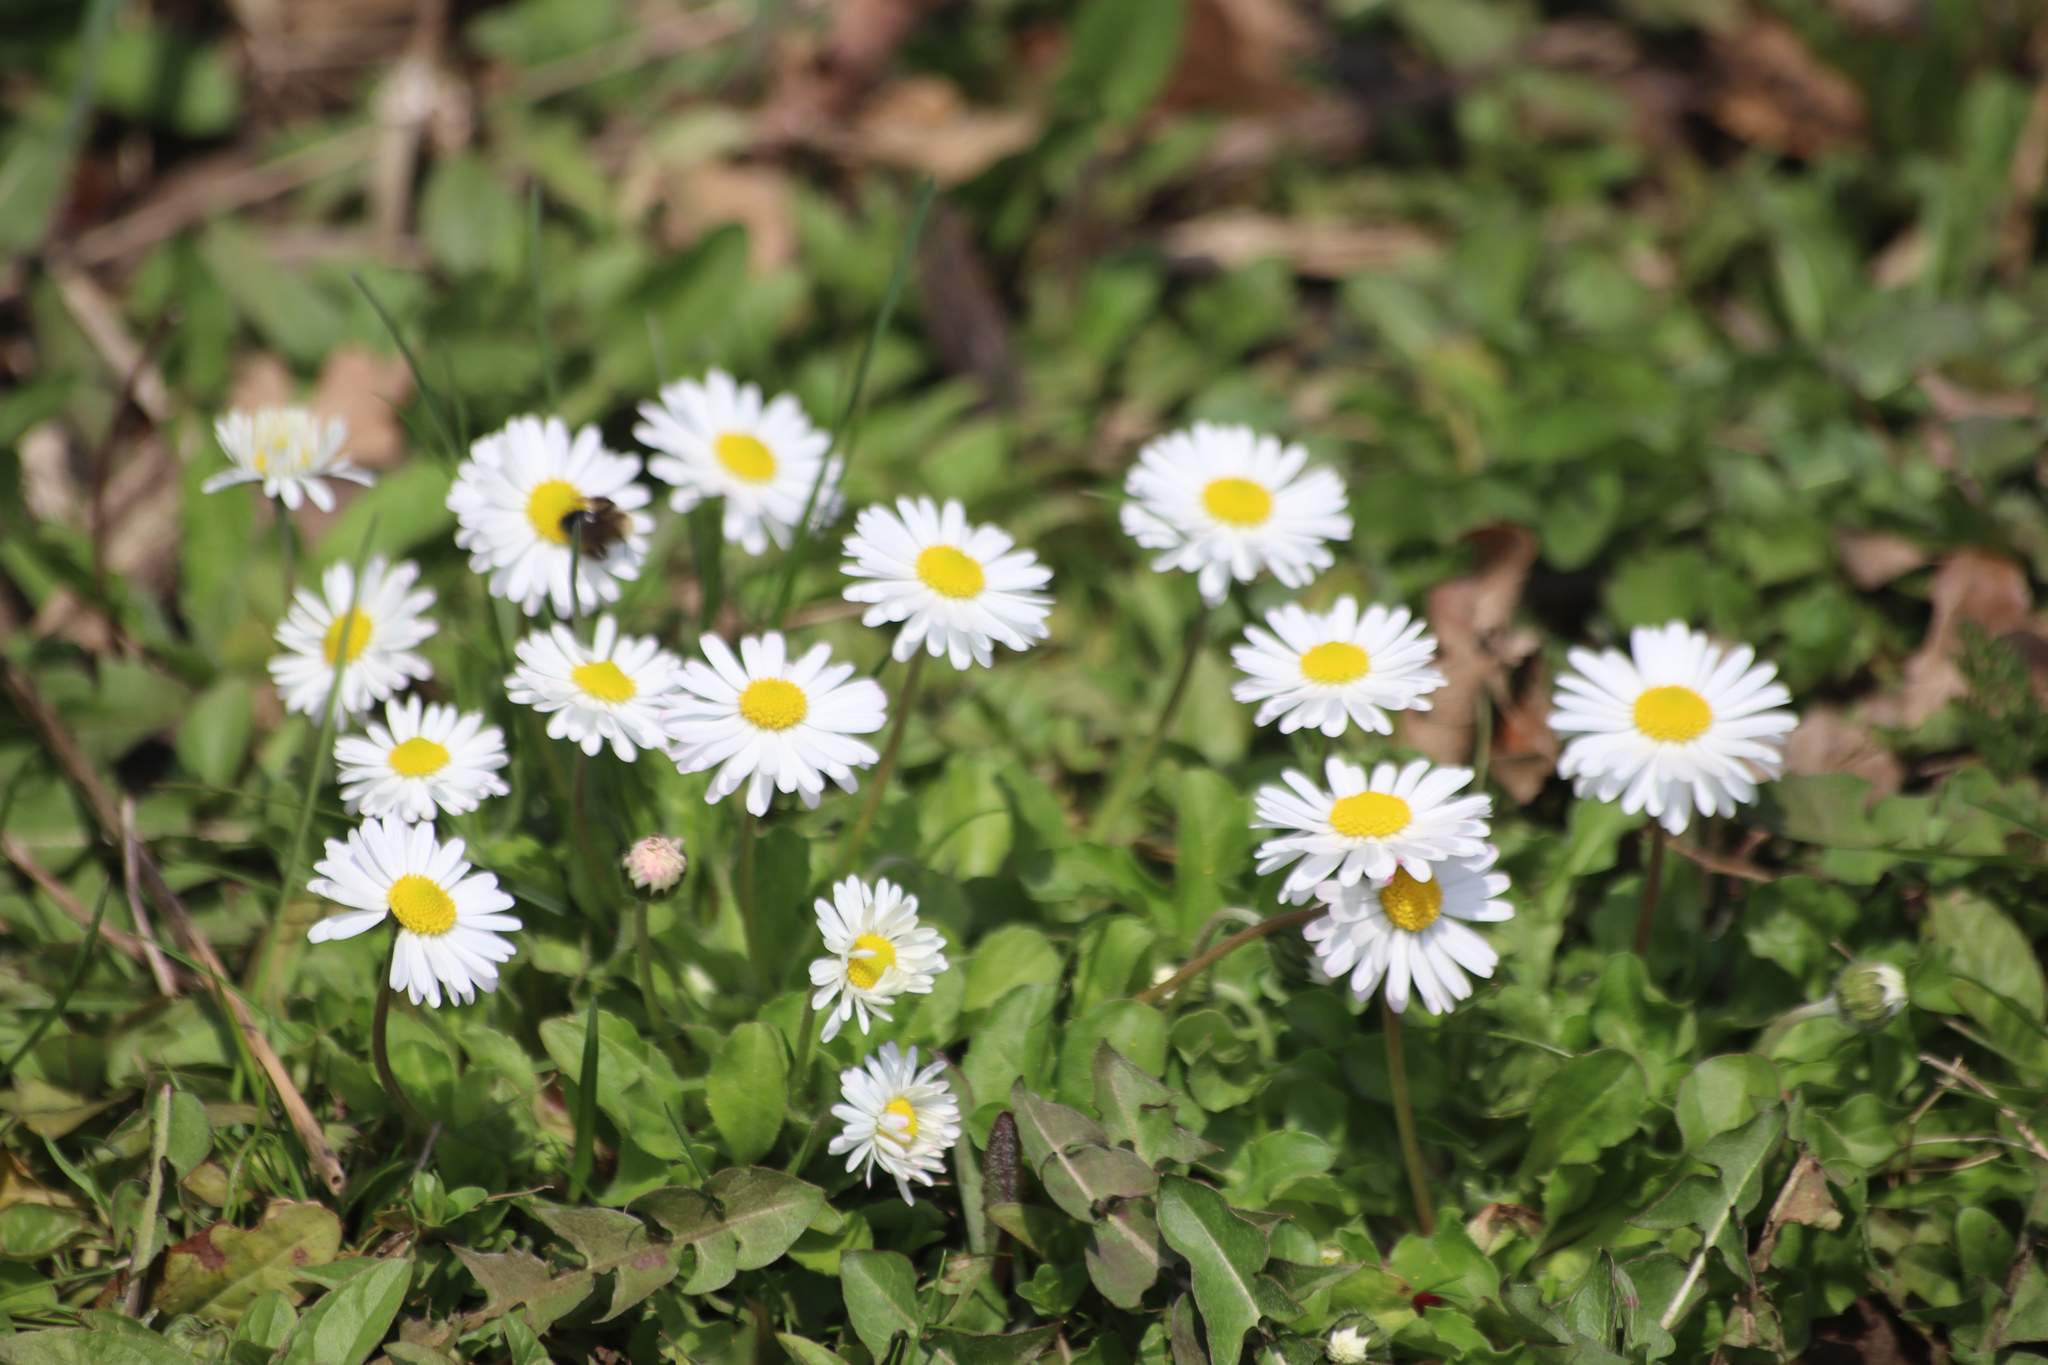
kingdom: Plantae
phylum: Tracheophyta
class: Magnoliopsida
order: Asterales
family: Asteraceae
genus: Bellis
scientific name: Bellis perennis
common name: Lawndaisy
